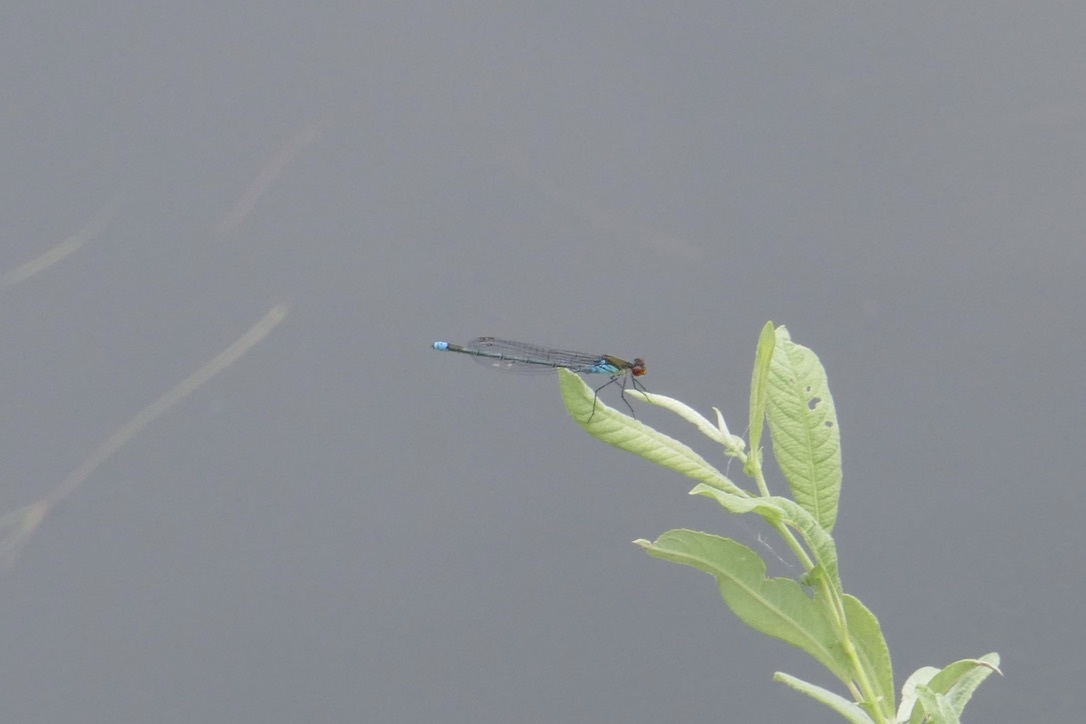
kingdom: Animalia
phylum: Arthropoda
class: Insecta
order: Odonata
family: Coenagrionidae
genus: Erythromma
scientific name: Erythromma najas
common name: Red-eyed damselfly
